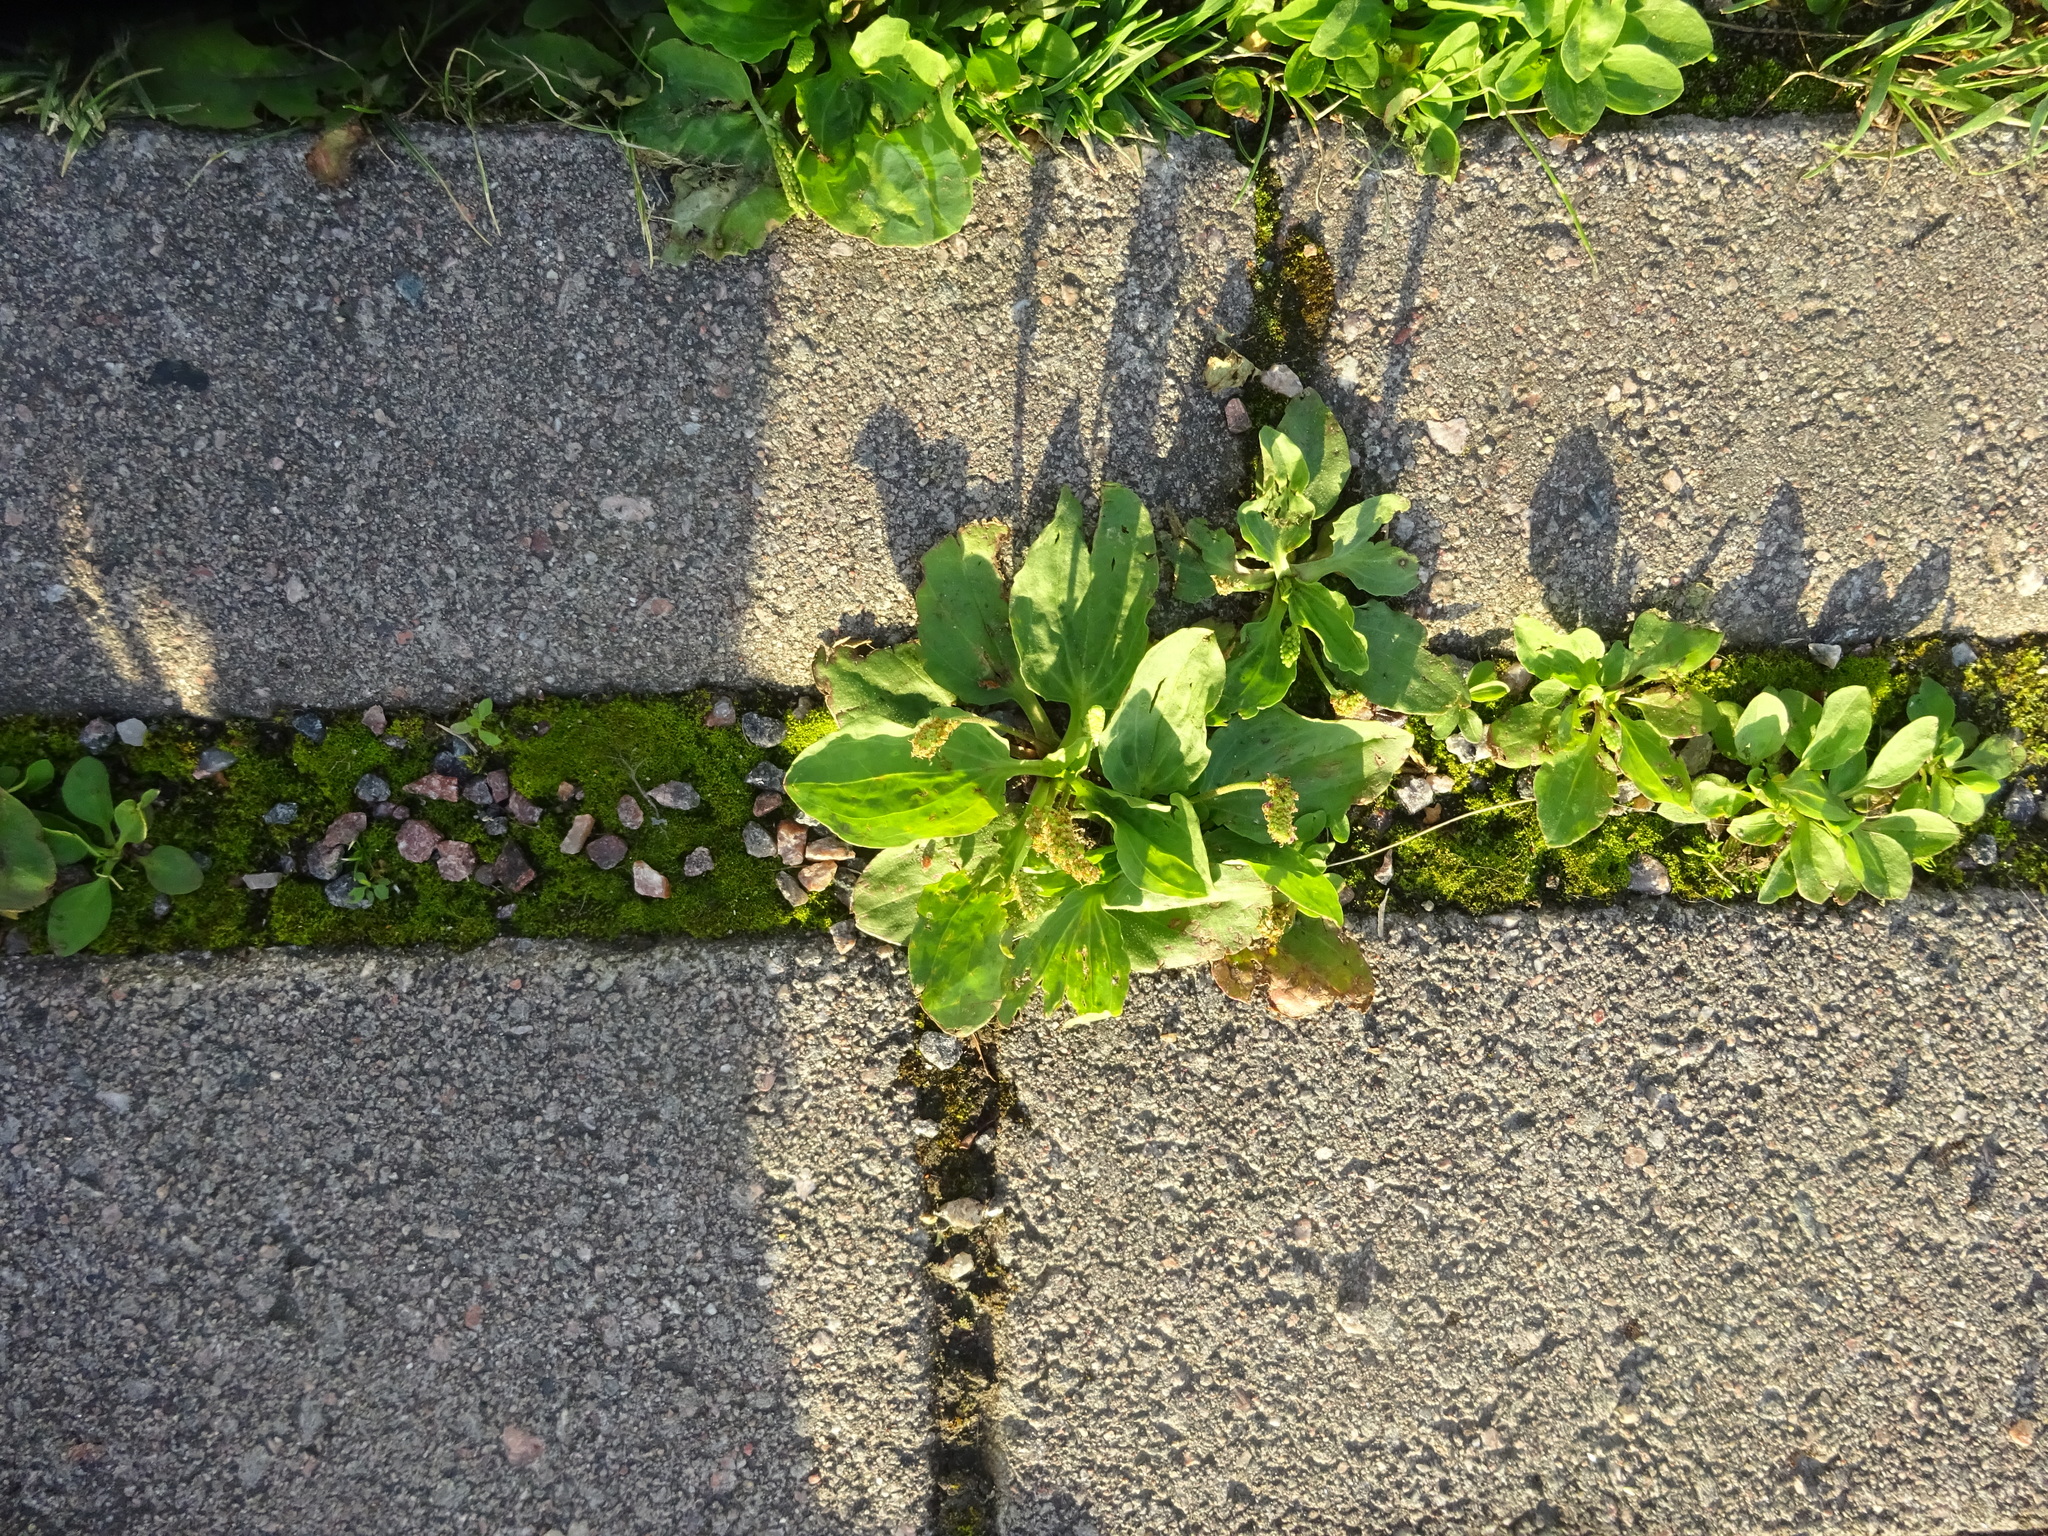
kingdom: Plantae
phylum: Tracheophyta
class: Magnoliopsida
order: Lamiales
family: Plantaginaceae
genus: Plantago
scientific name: Plantago major
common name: Common plantain
